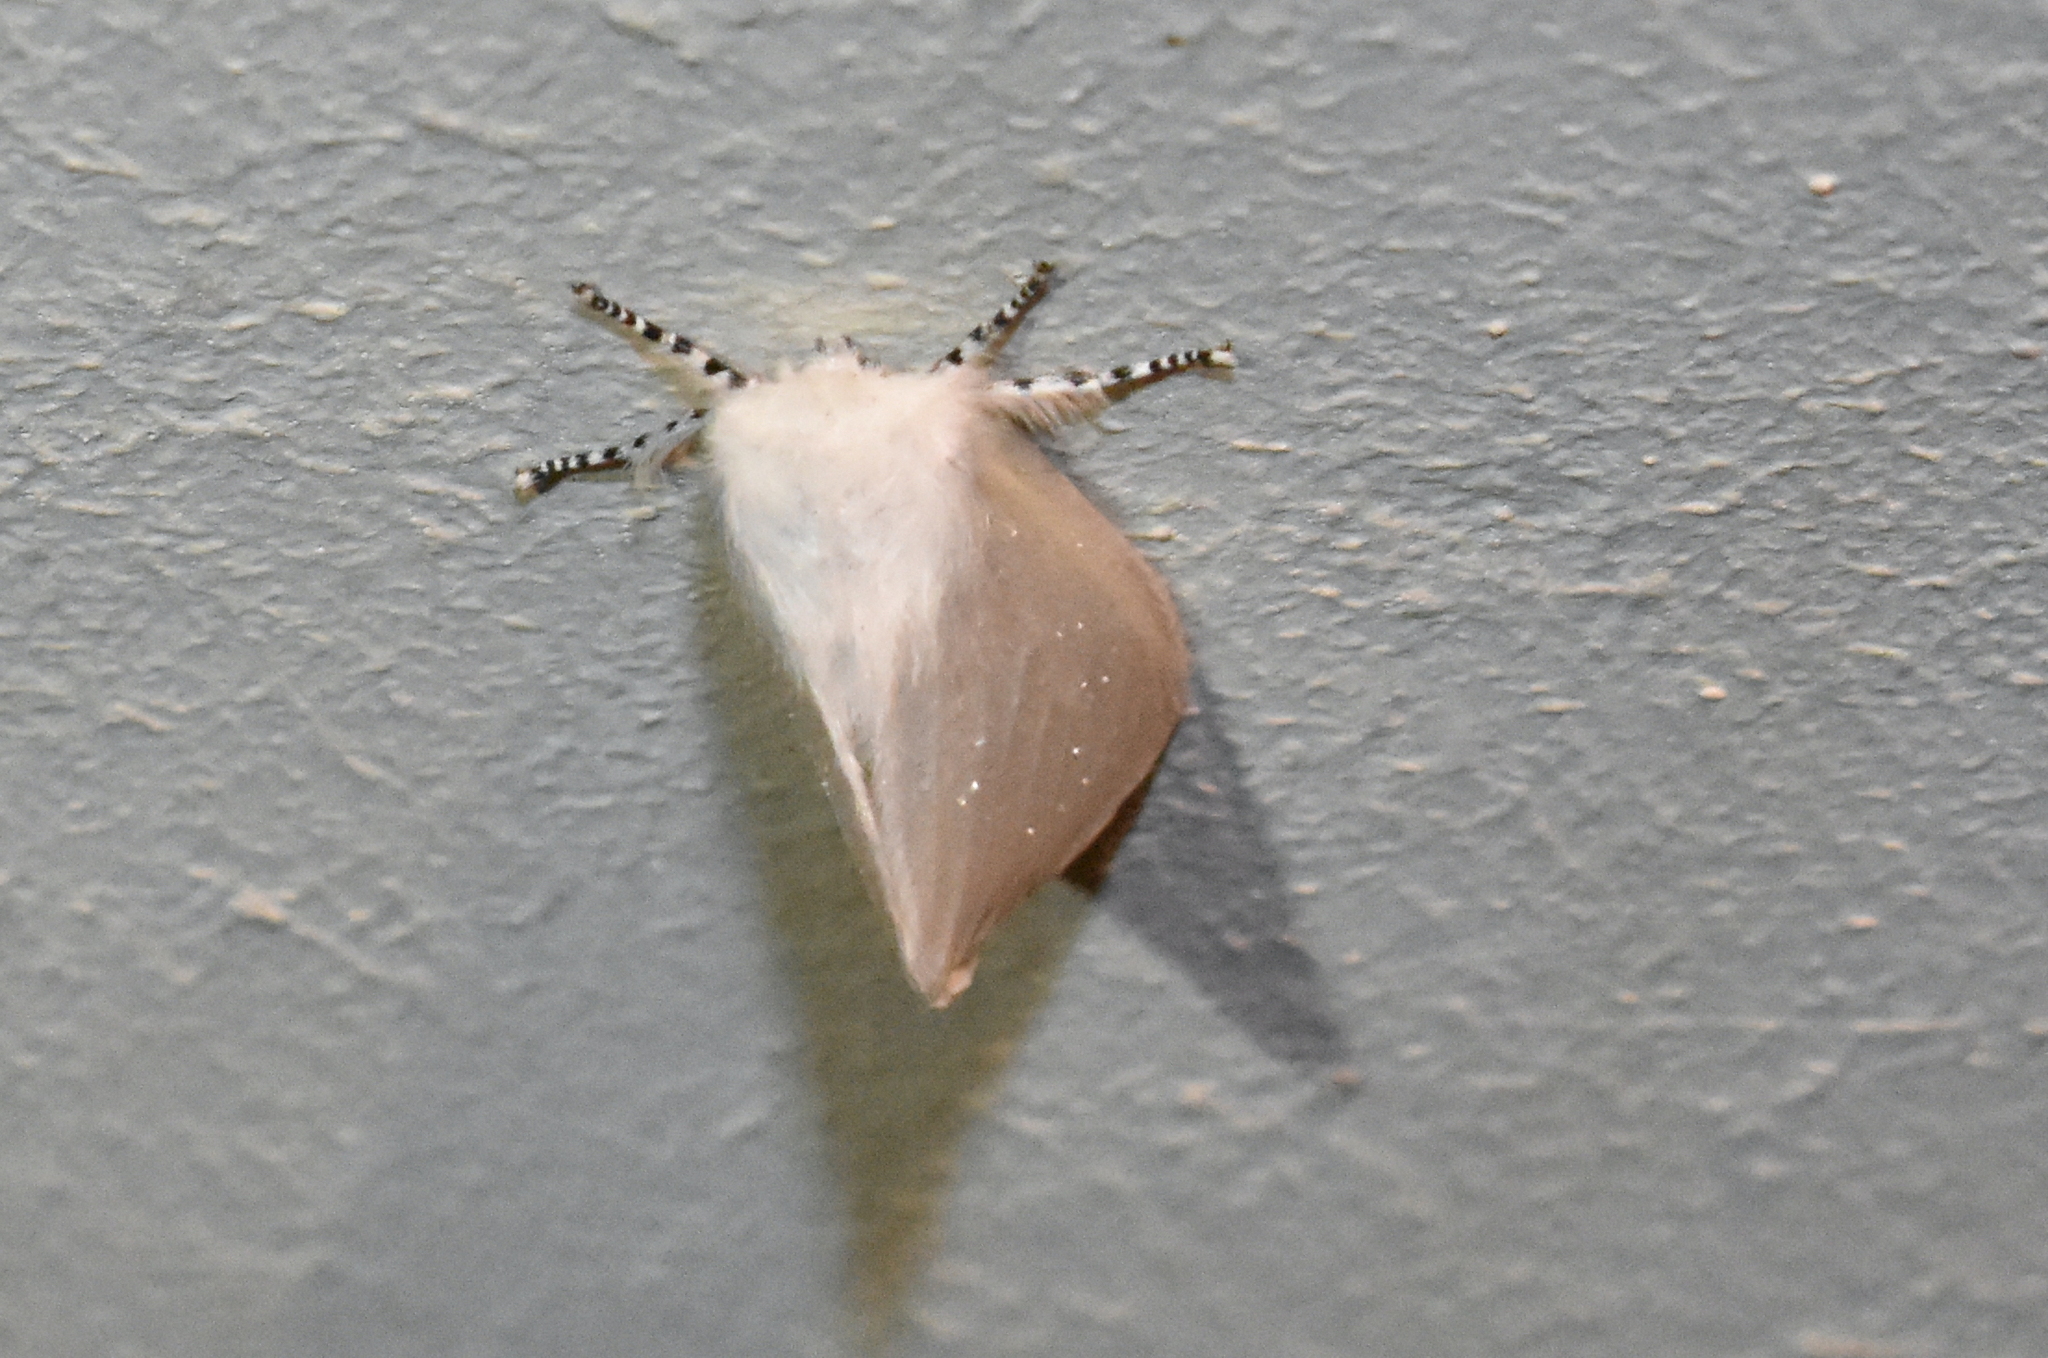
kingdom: Animalia
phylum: Arthropoda
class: Insecta
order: Lepidoptera
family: Erebidae
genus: Leucoma
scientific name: Leucoma salicis
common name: White satin moth
